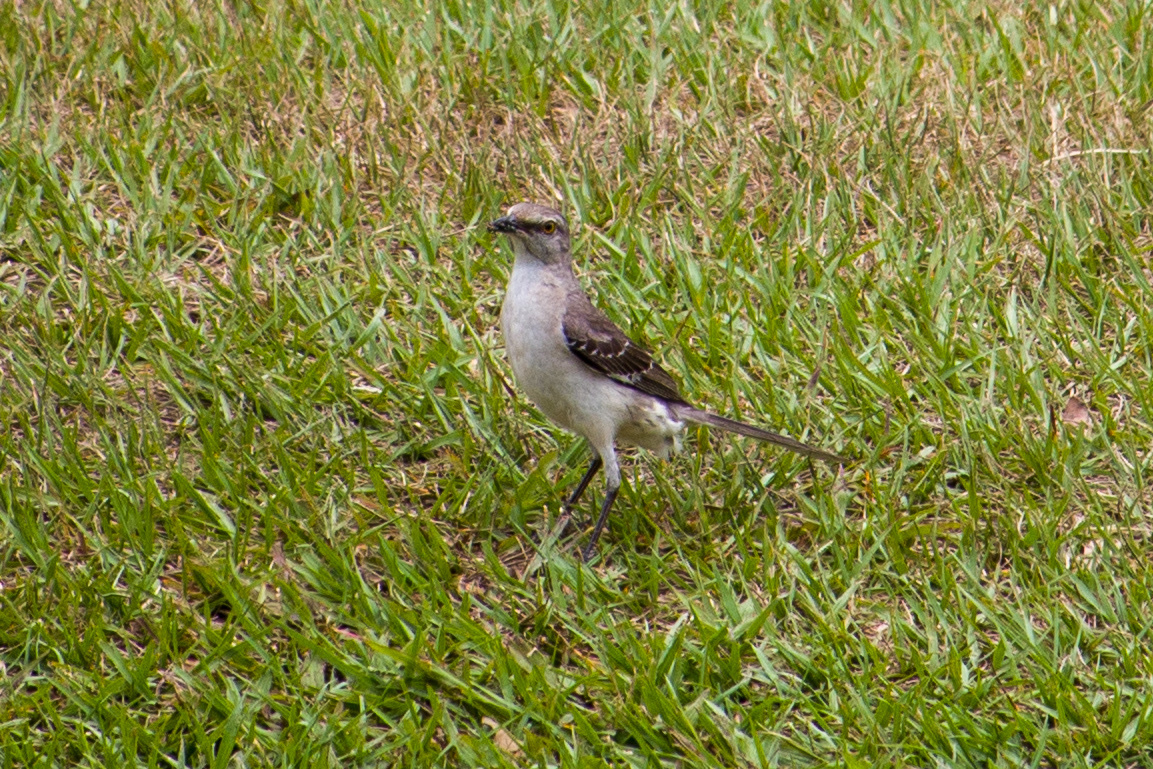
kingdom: Animalia
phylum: Chordata
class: Aves
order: Passeriformes
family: Mimidae
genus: Mimus
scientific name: Mimus polyglottos
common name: Northern mockingbird
